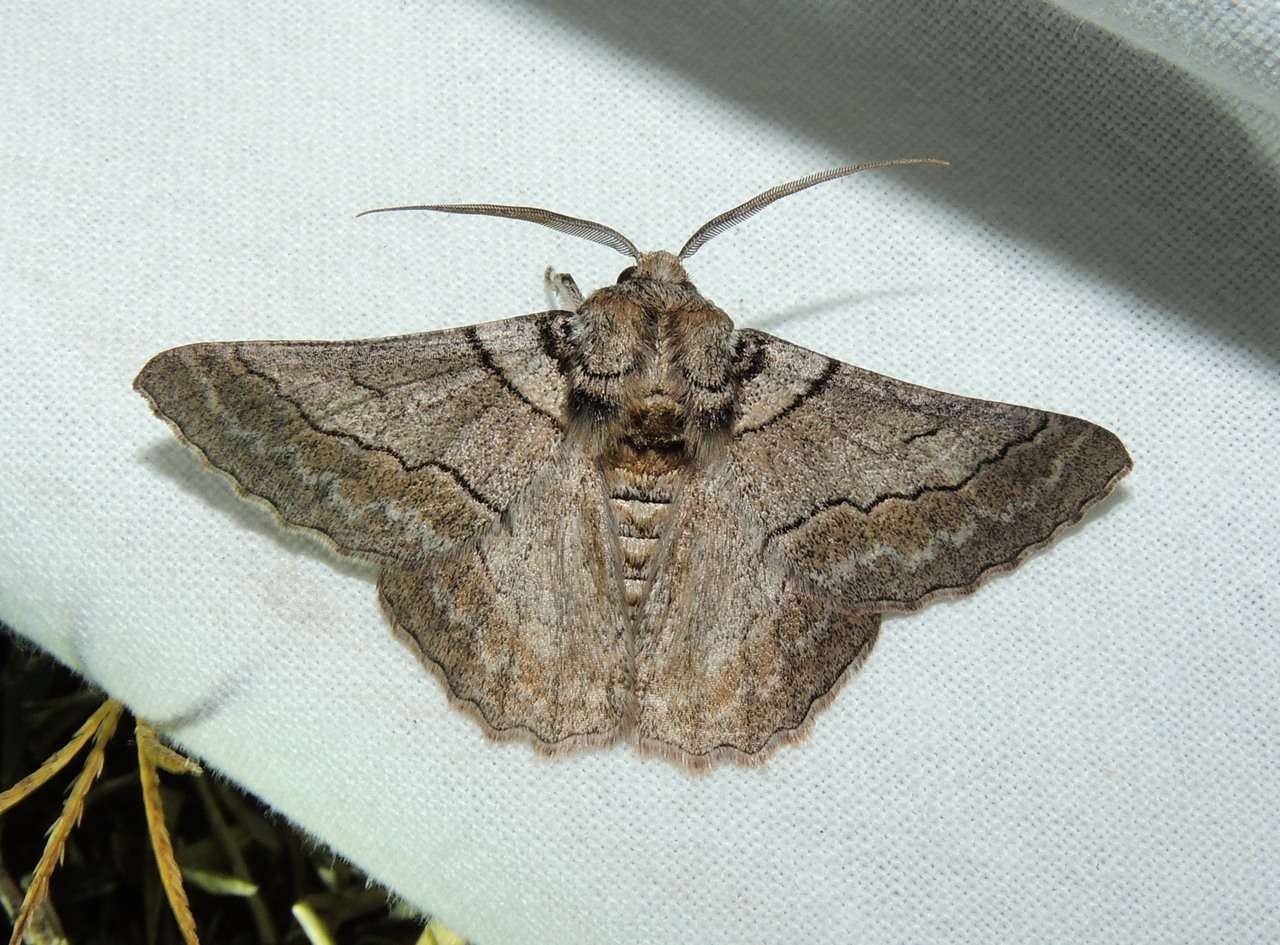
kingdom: Animalia
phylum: Arthropoda
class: Insecta
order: Lepidoptera
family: Geometridae
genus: Hypobapta
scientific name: Hypobapta tachyhalotaria
